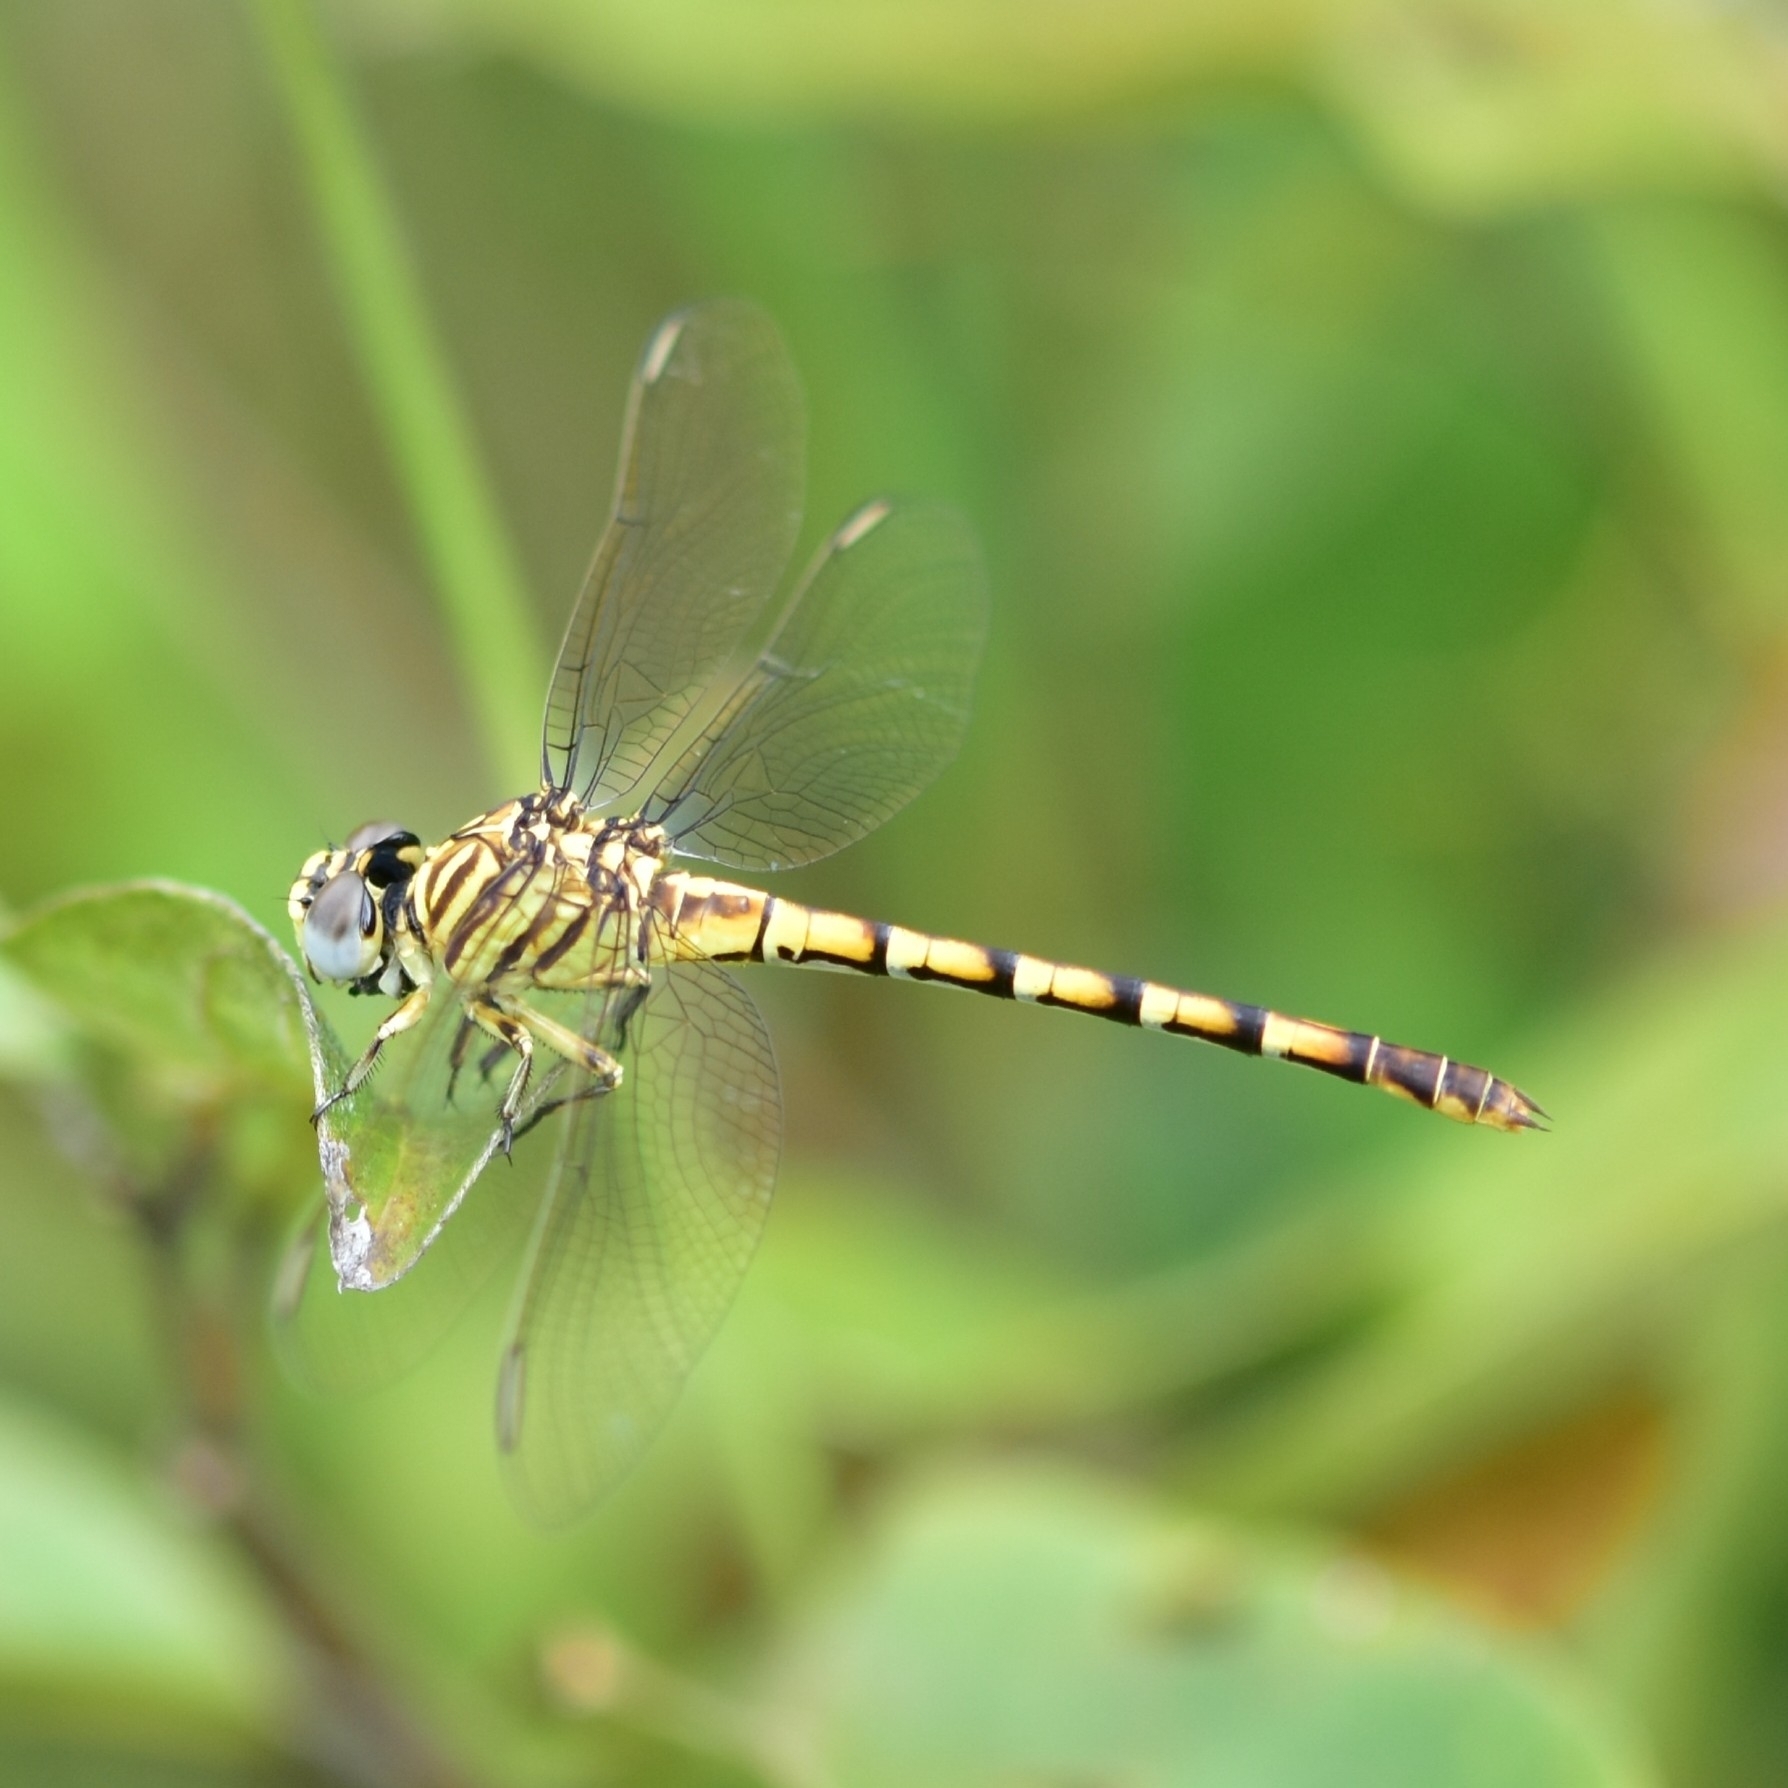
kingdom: Animalia
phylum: Arthropoda
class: Insecta
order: Odonata
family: Gomphidae
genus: Paragomphus
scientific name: Paragomphus lineatus
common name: Lined hooktail
